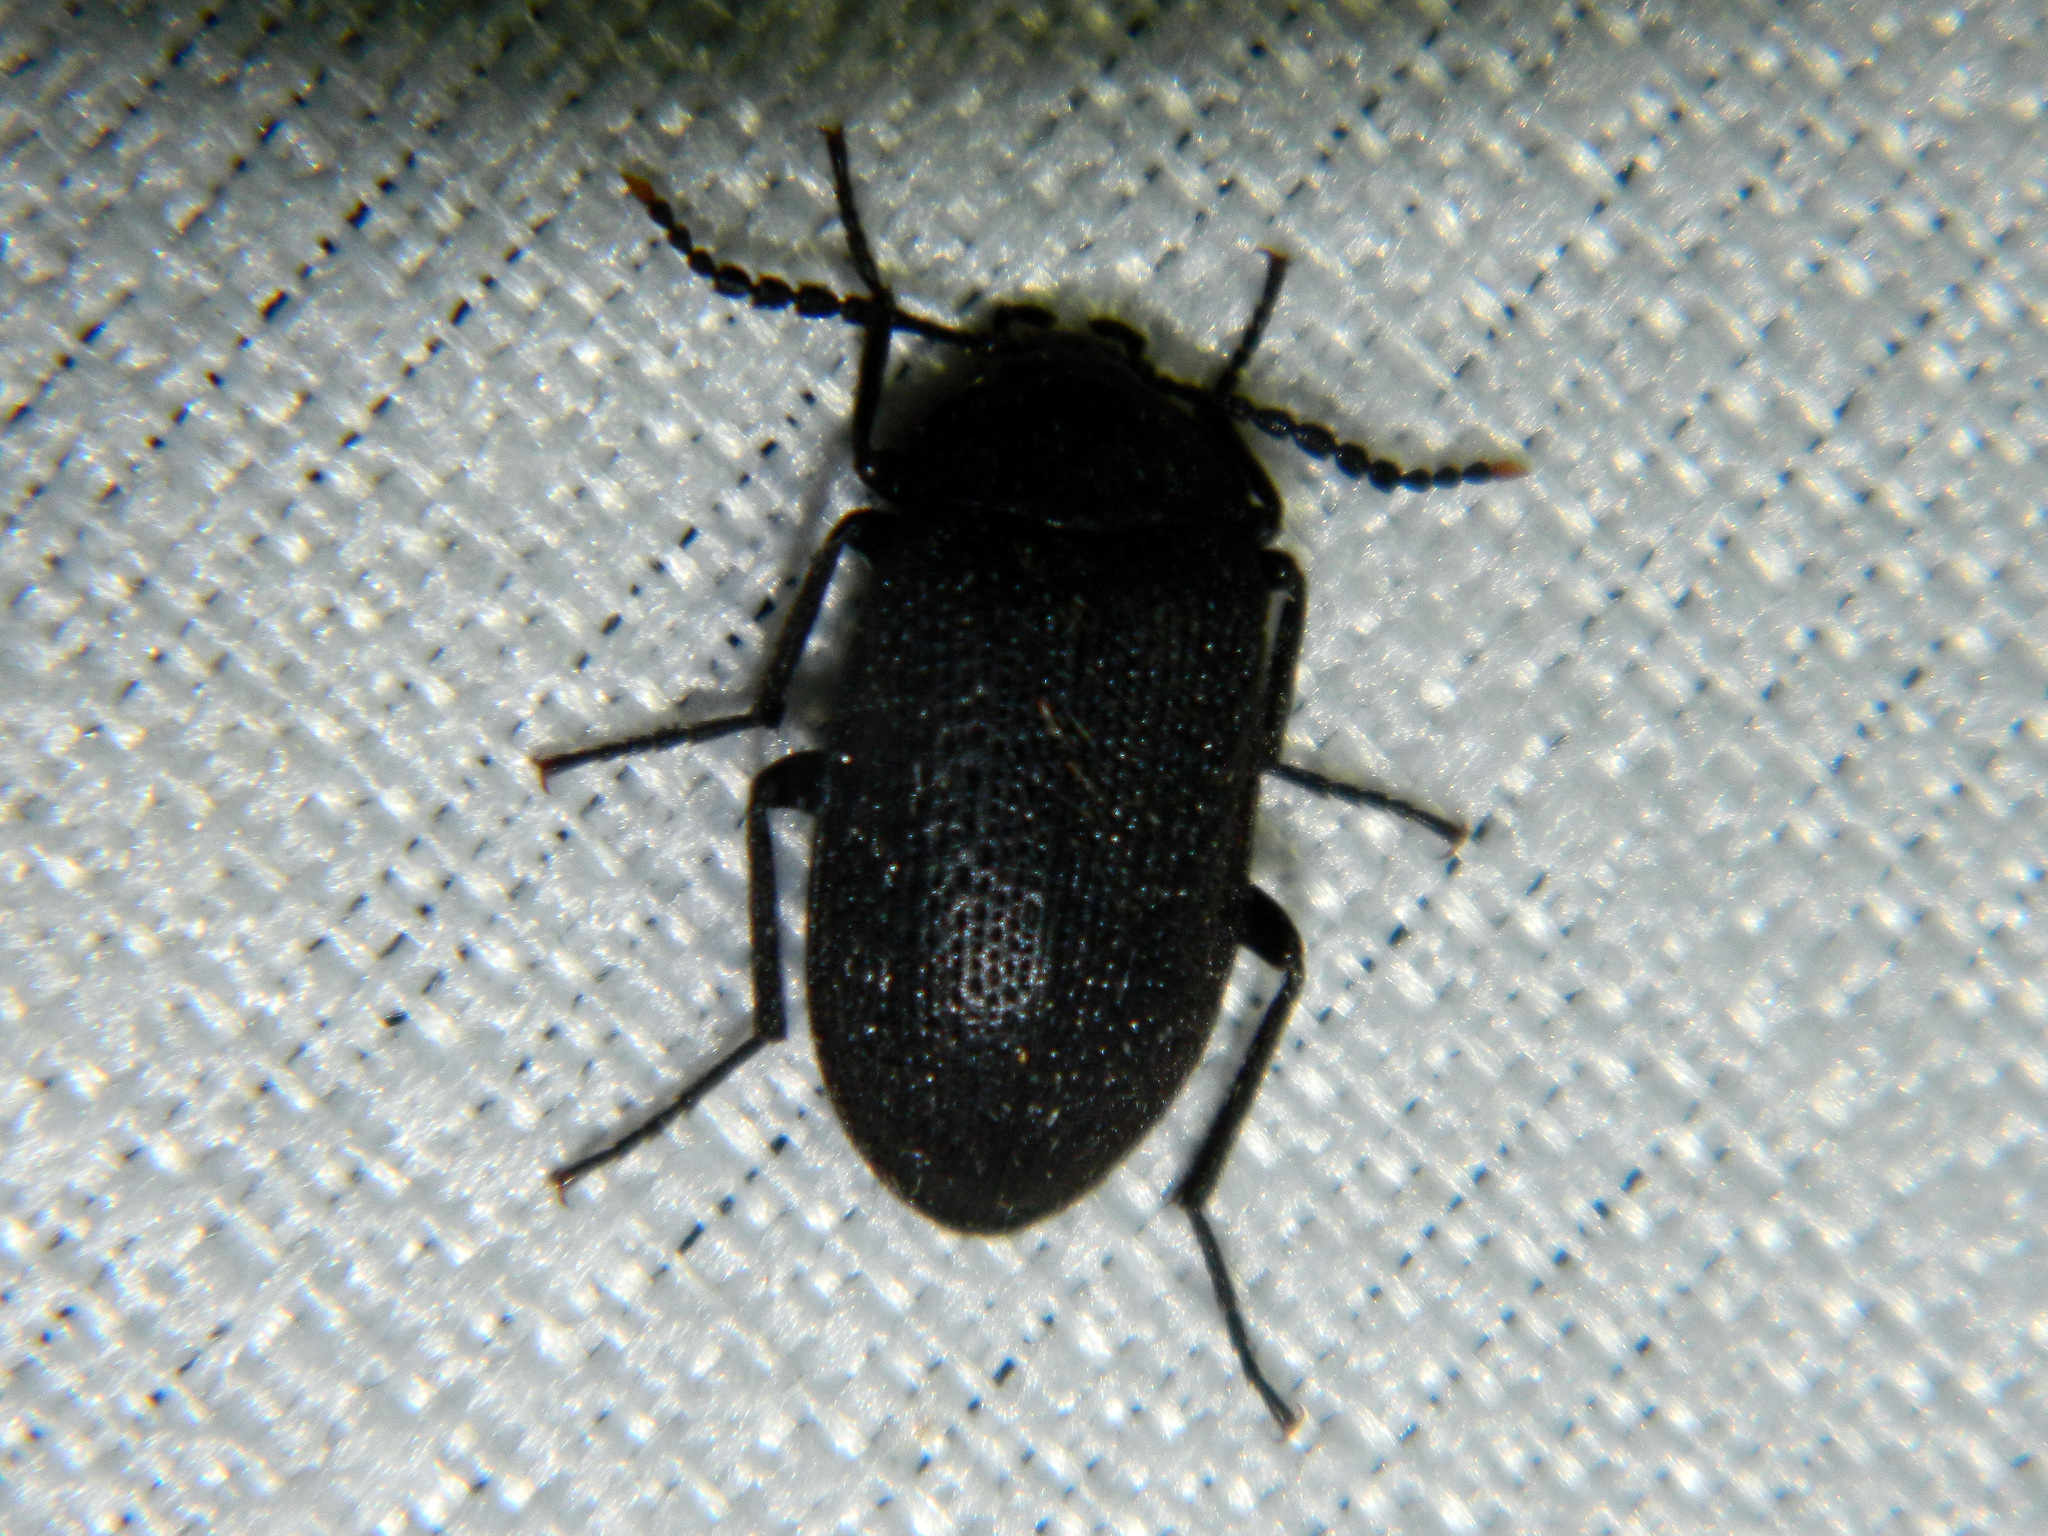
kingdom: Animalia
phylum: Arthropoda
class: Insecta
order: Coleoptera
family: Tetratomidae
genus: Penthe
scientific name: Penthe pimelia
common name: Velvety bark beetle
